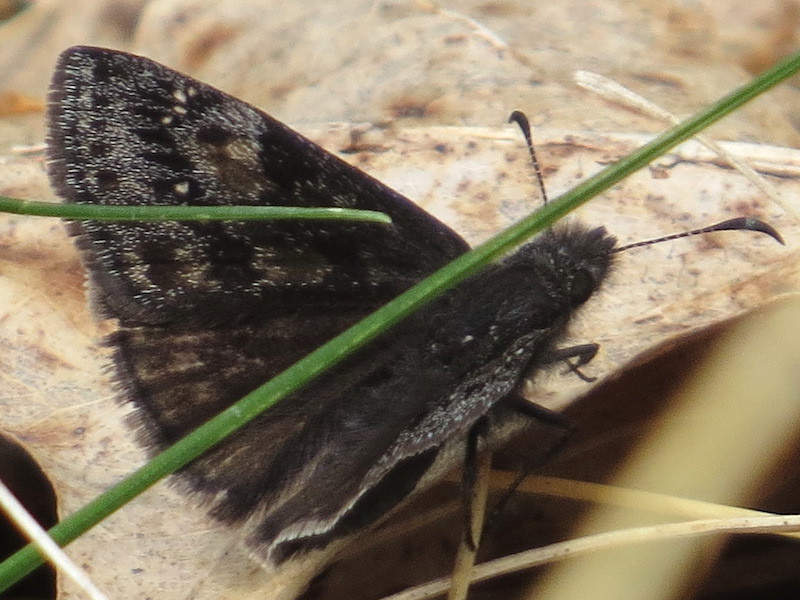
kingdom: Animalia
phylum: Arthropoda
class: Insecta
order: Lepidoptera
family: Hesperiidae
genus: Erynnis
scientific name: Erynnis baptisiae
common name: Wild indigo duskywing
